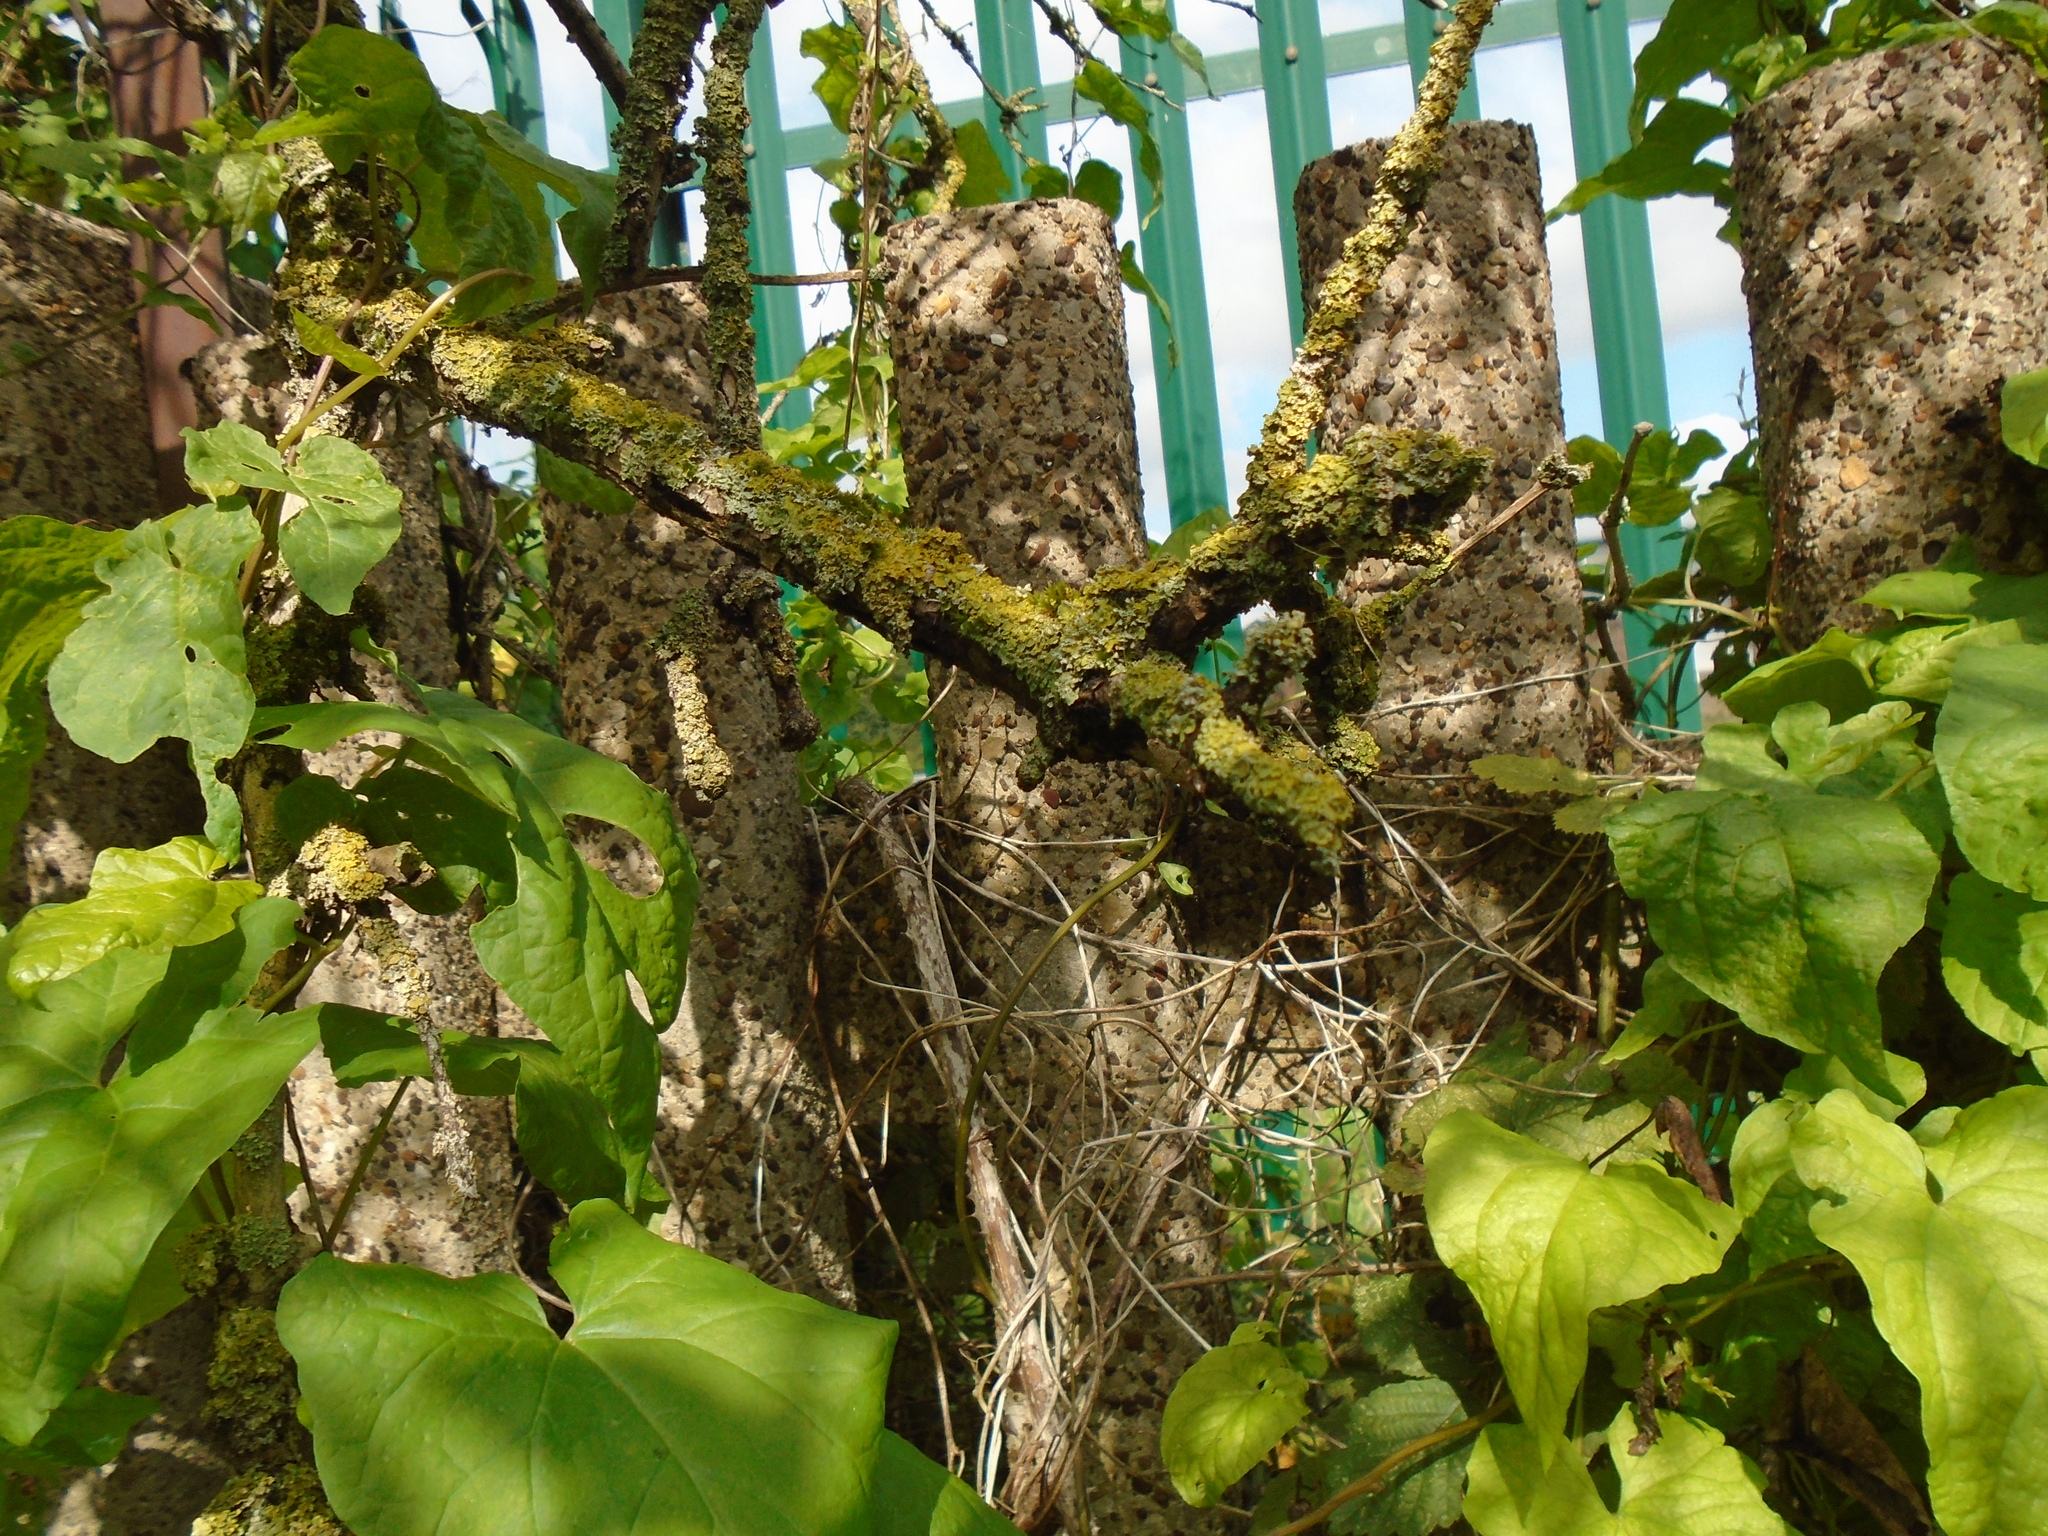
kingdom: Fungi
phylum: Ascomycota
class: Lecanoromycetes
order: Teloschistales
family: Teloschistaceae
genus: Xanthoria
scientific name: Xanthoria parietina
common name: Common orange lichen
